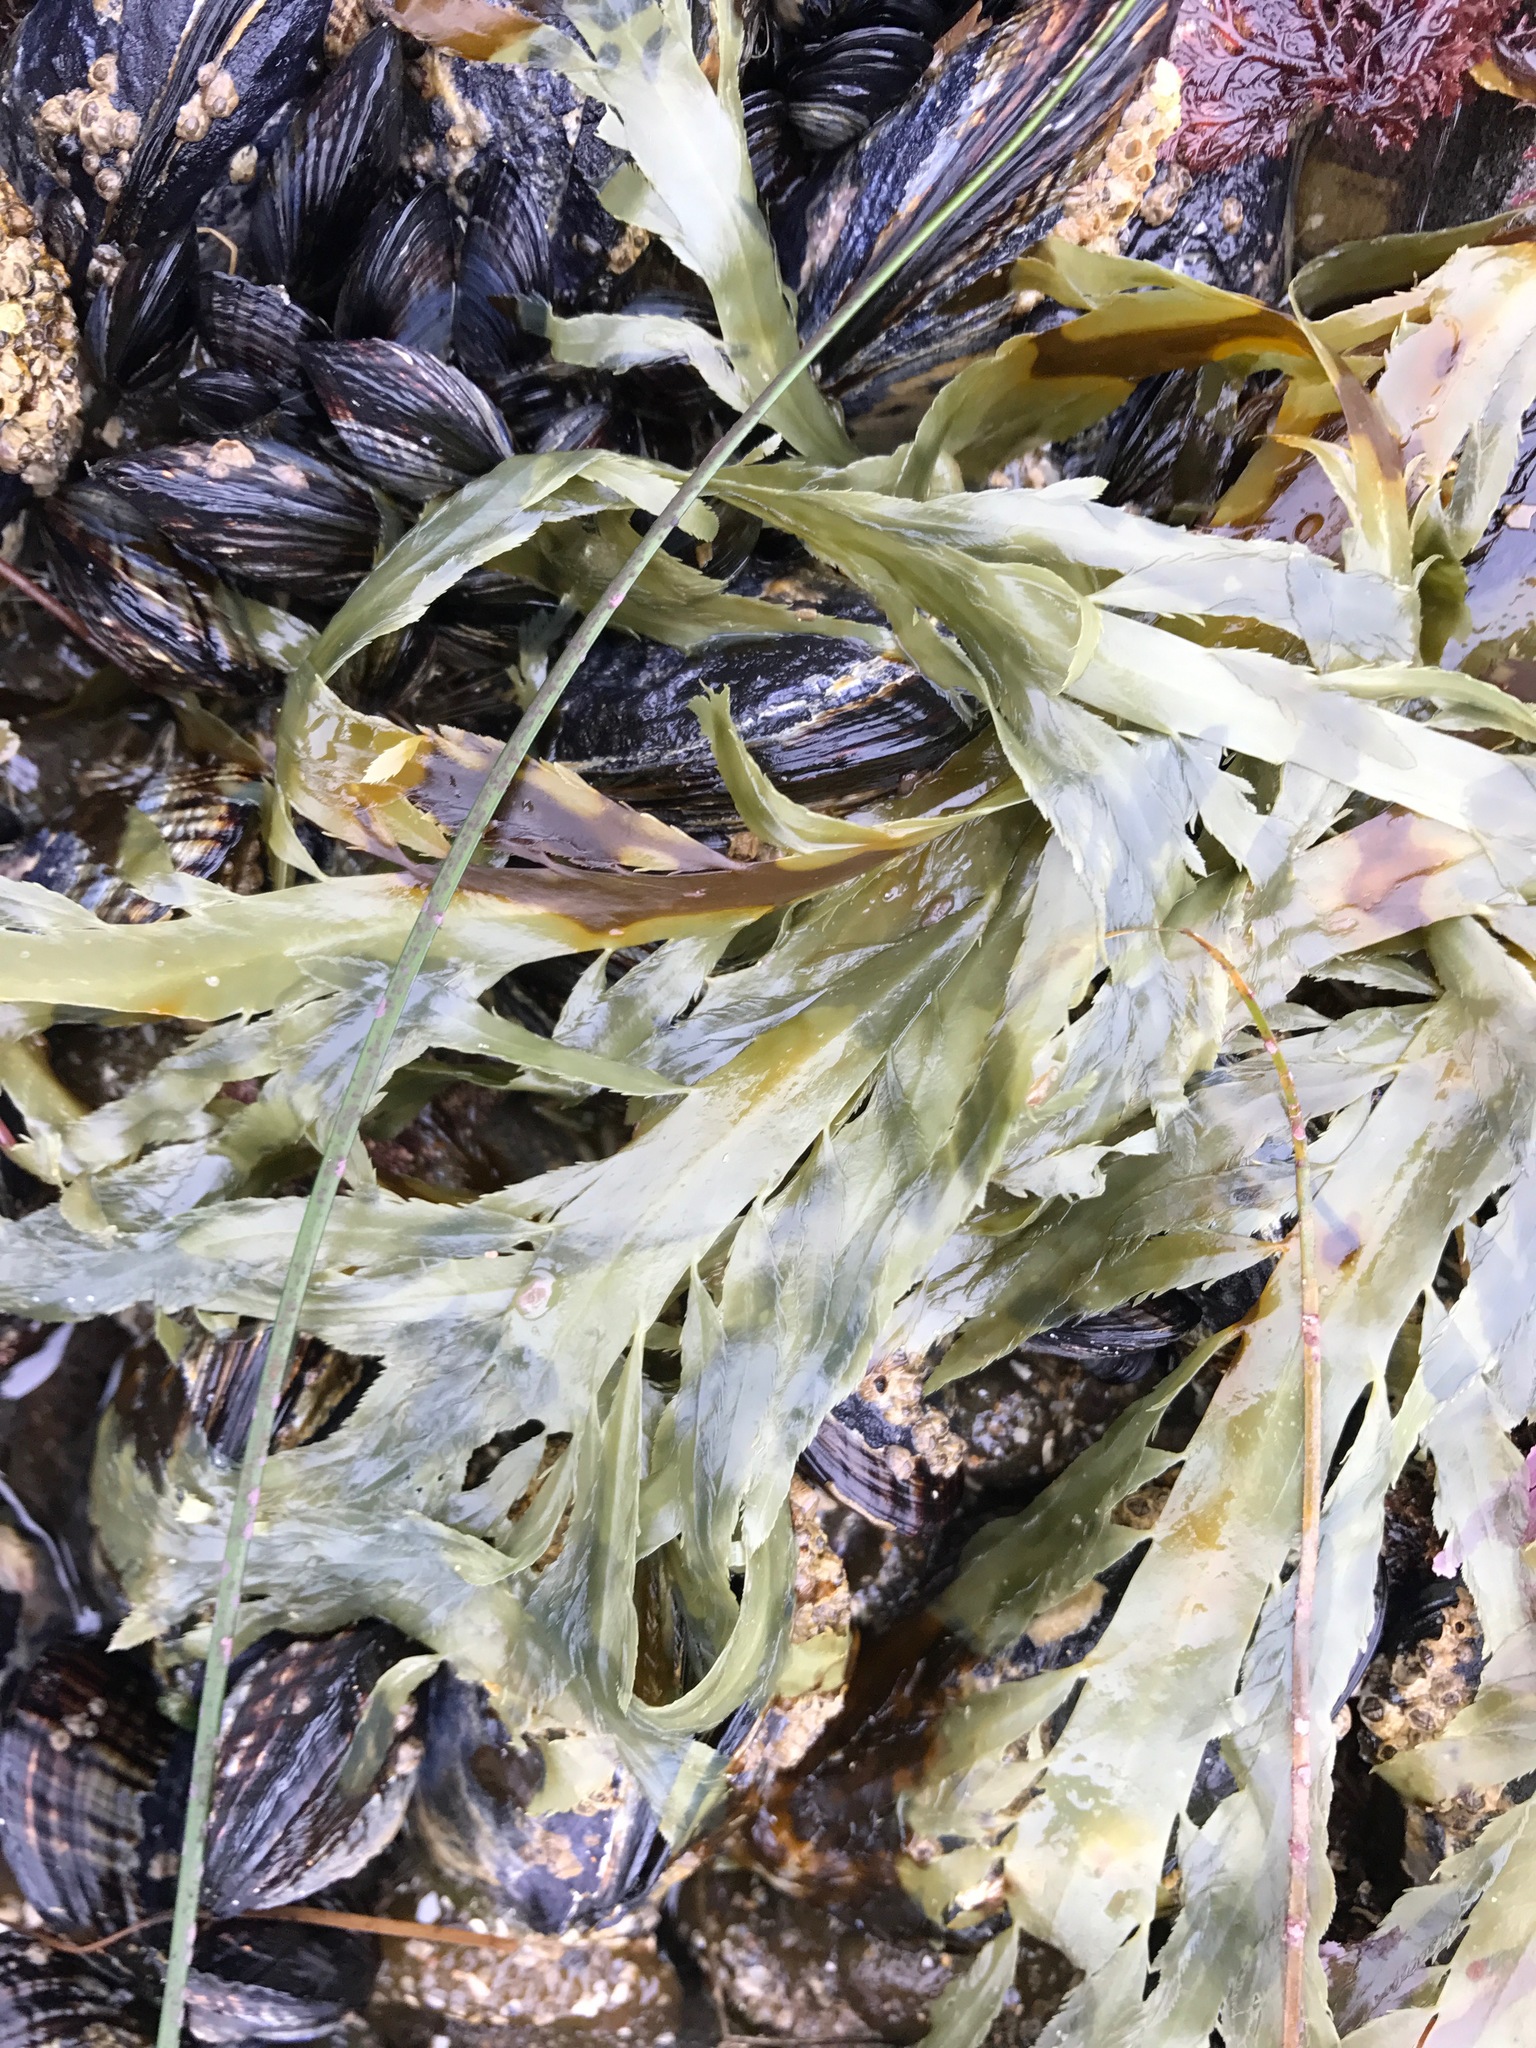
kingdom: Chromista
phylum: Ochrophyta
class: Phaeophyceae
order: Desmarestiales
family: Desmarestiaceae
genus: Desmarestia
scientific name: Desmarestia ligulata
